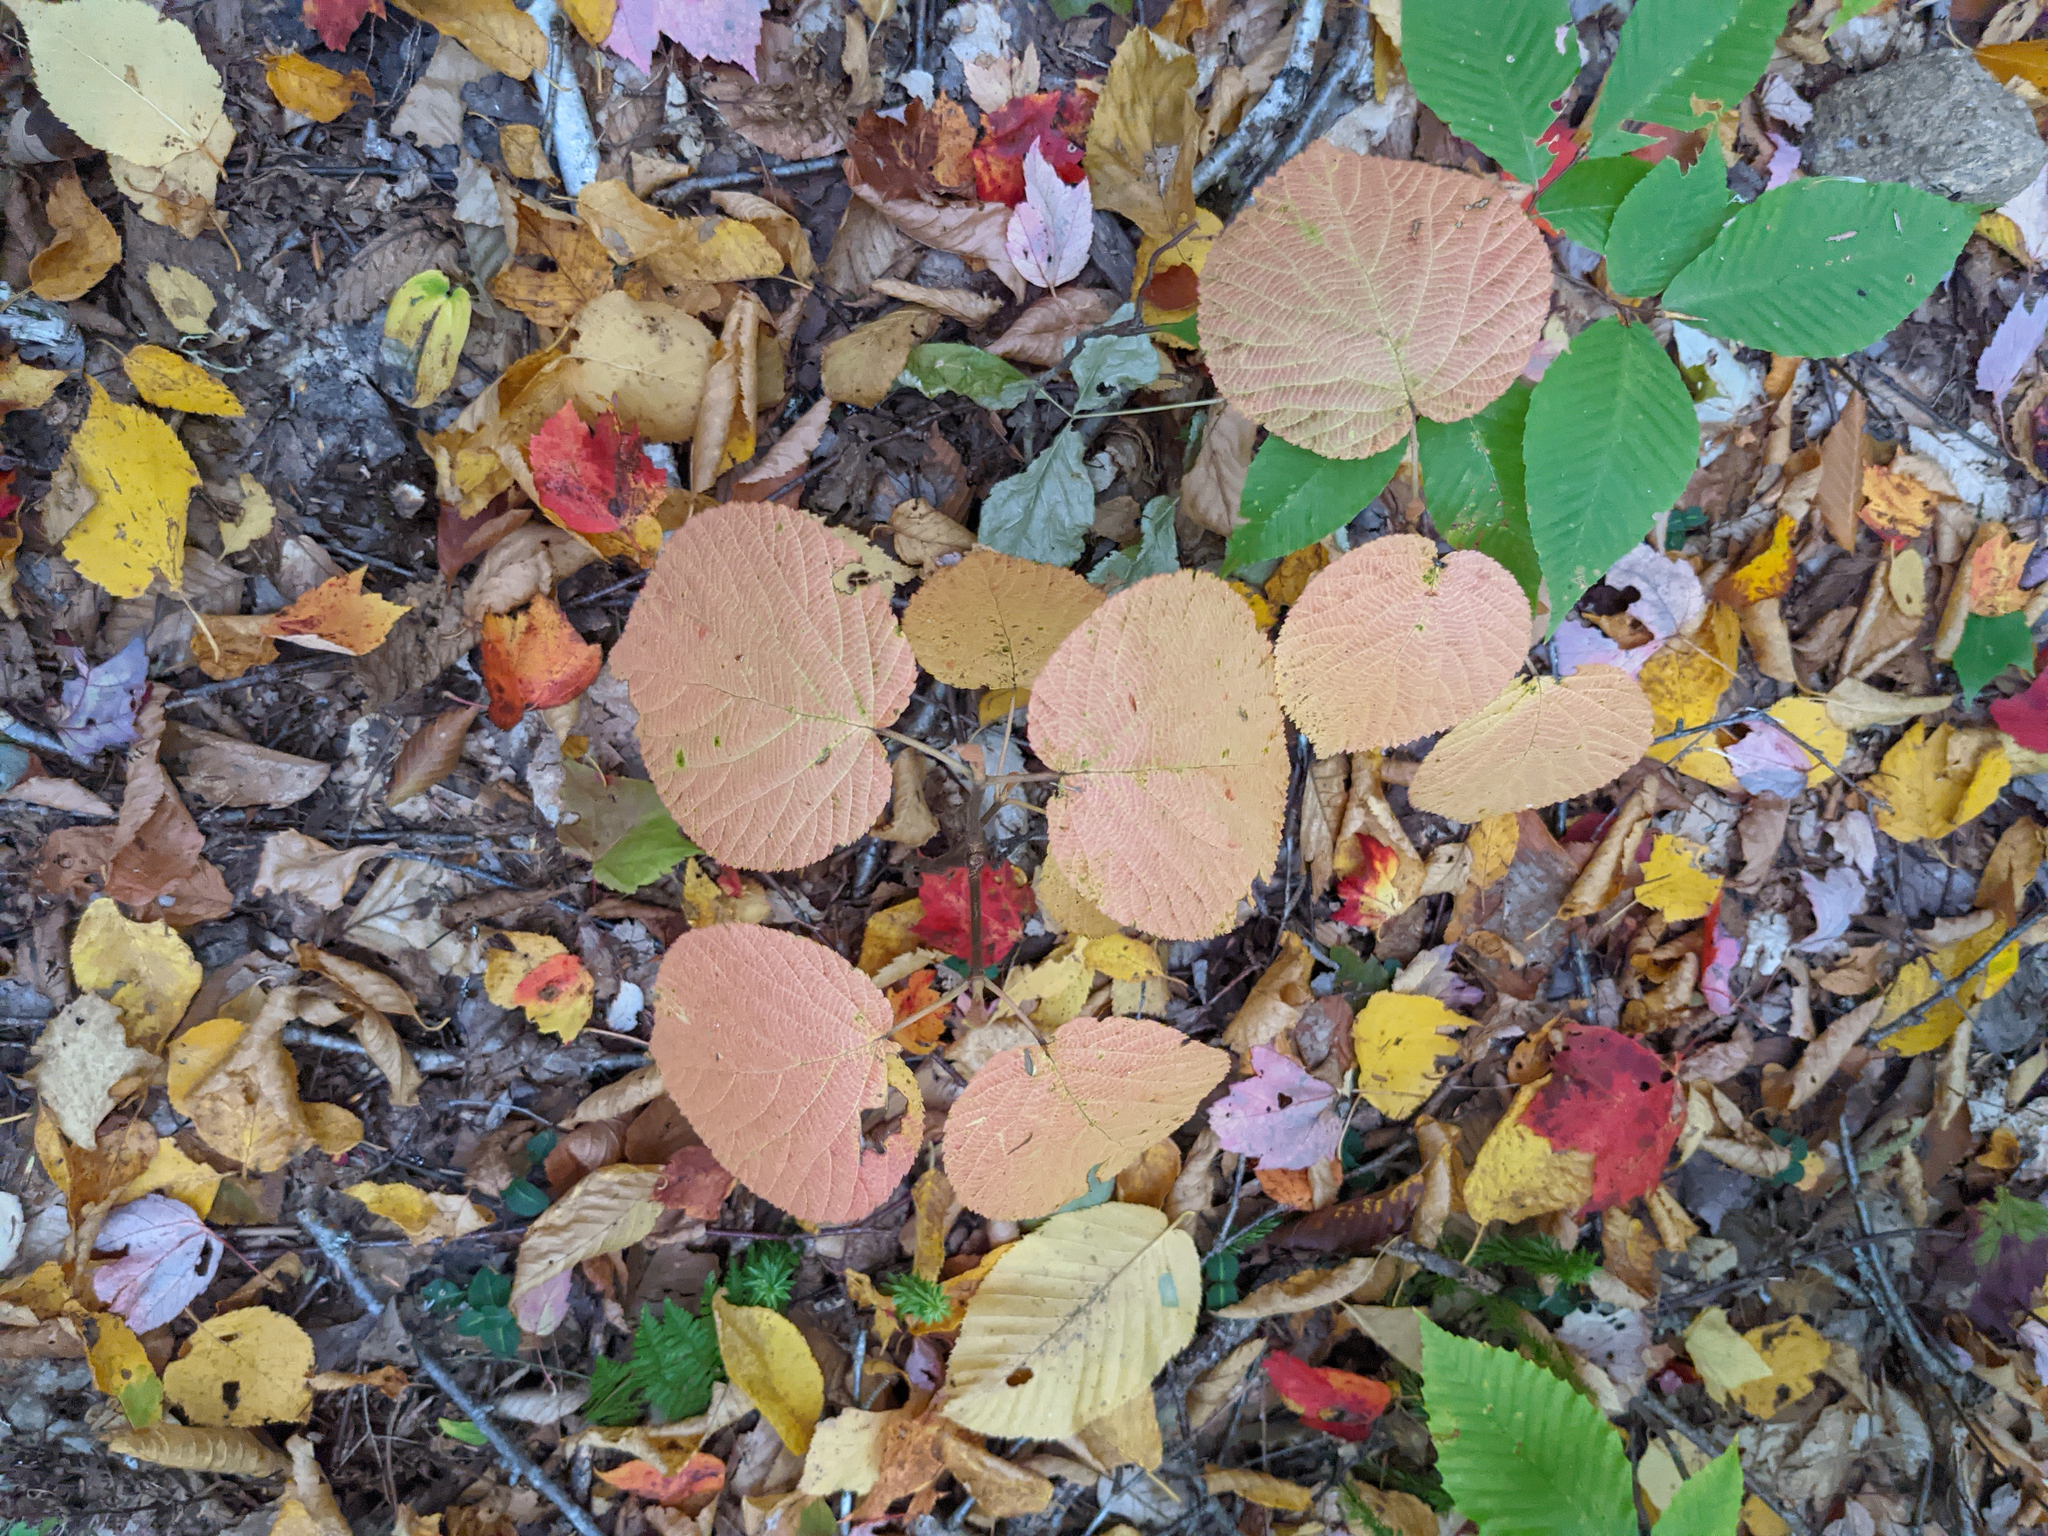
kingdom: Plantae
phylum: Tracheophyta
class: Magnoliopsida
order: Dipsacales
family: Viburnaceae
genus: Viburnum
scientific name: Viburnum lantanoides
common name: Hobblebush
